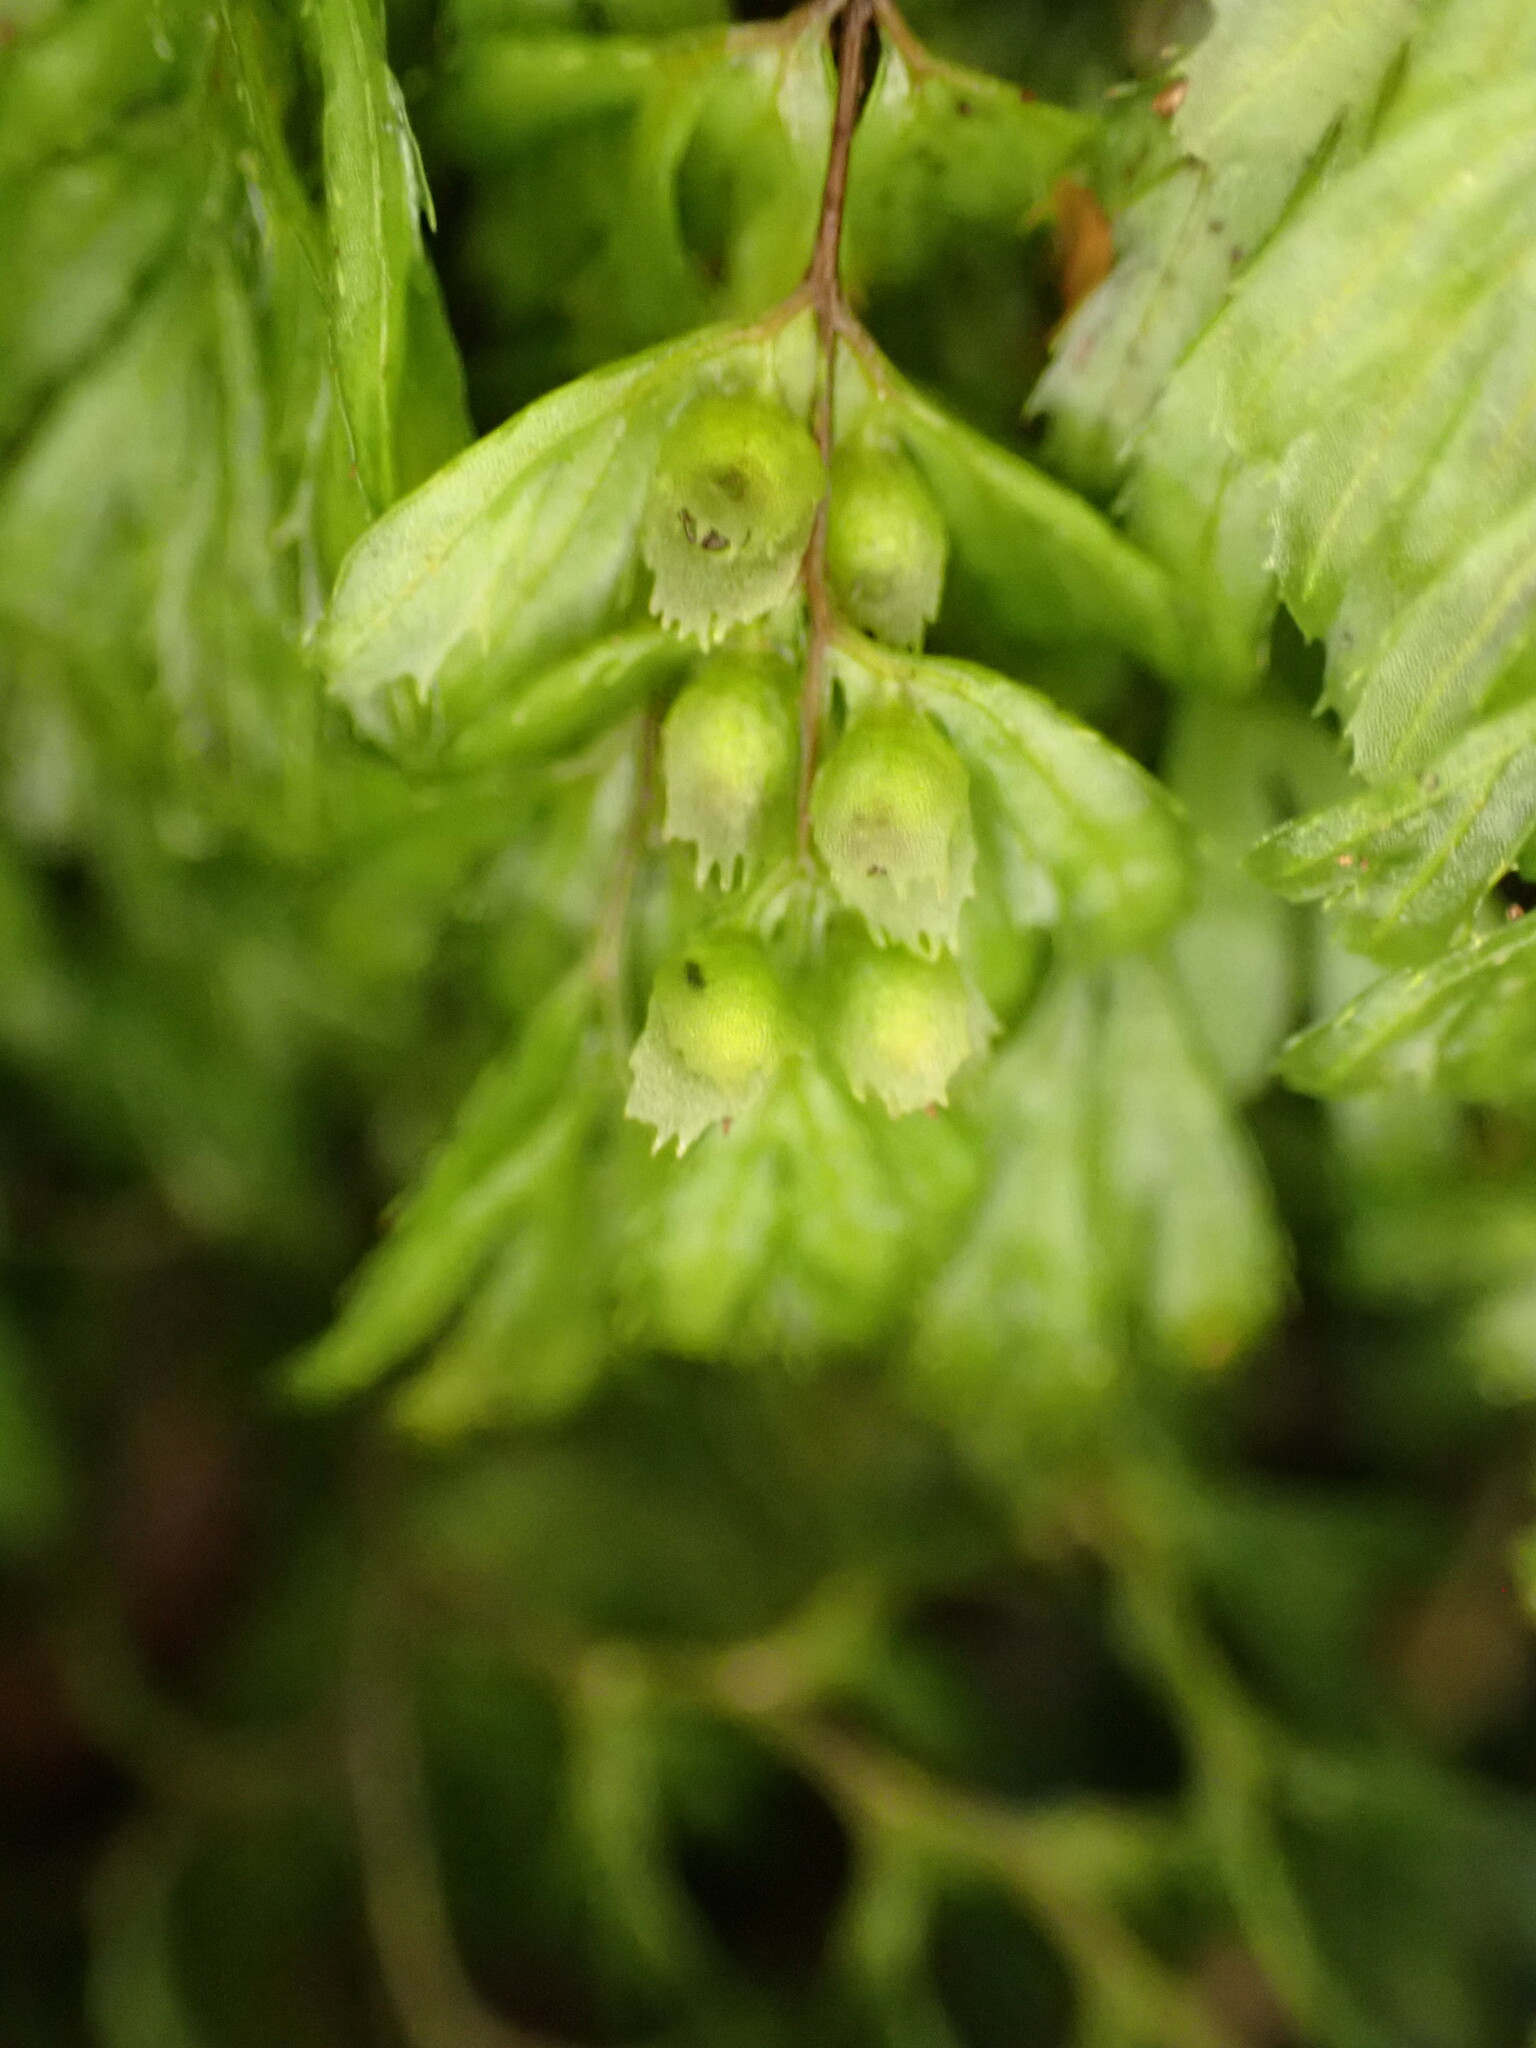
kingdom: Plantae
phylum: Tracheophyta
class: Polypodiopsida
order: Hymenophyllales
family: Hymenophyllaceae
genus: Hymenophyllum
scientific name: Hymenophyllum revolutum
